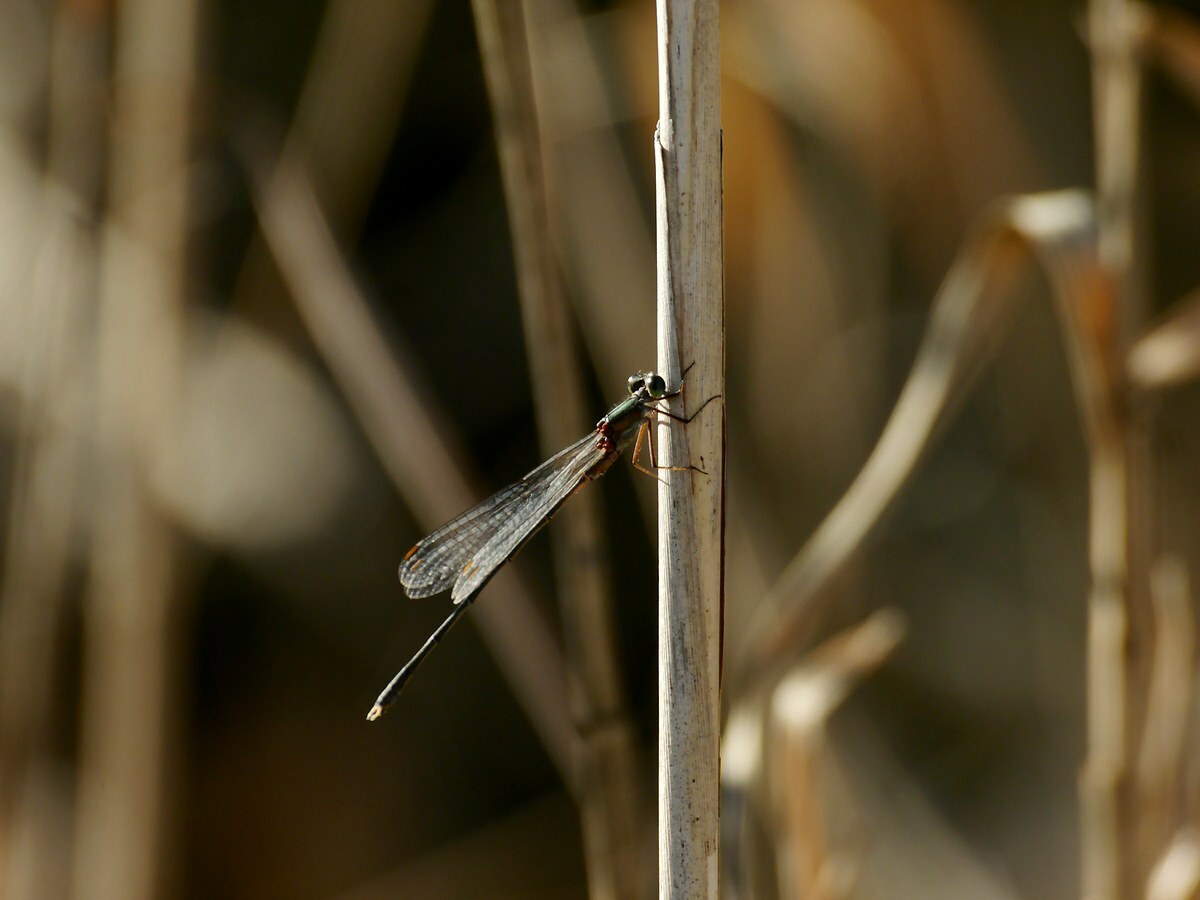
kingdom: Animalia
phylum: Arthropoda
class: Insecta
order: Odonata
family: Lestidae
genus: Chalcolestes
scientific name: Chalcolestes parvidens
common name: Eastern willow spreadwing
